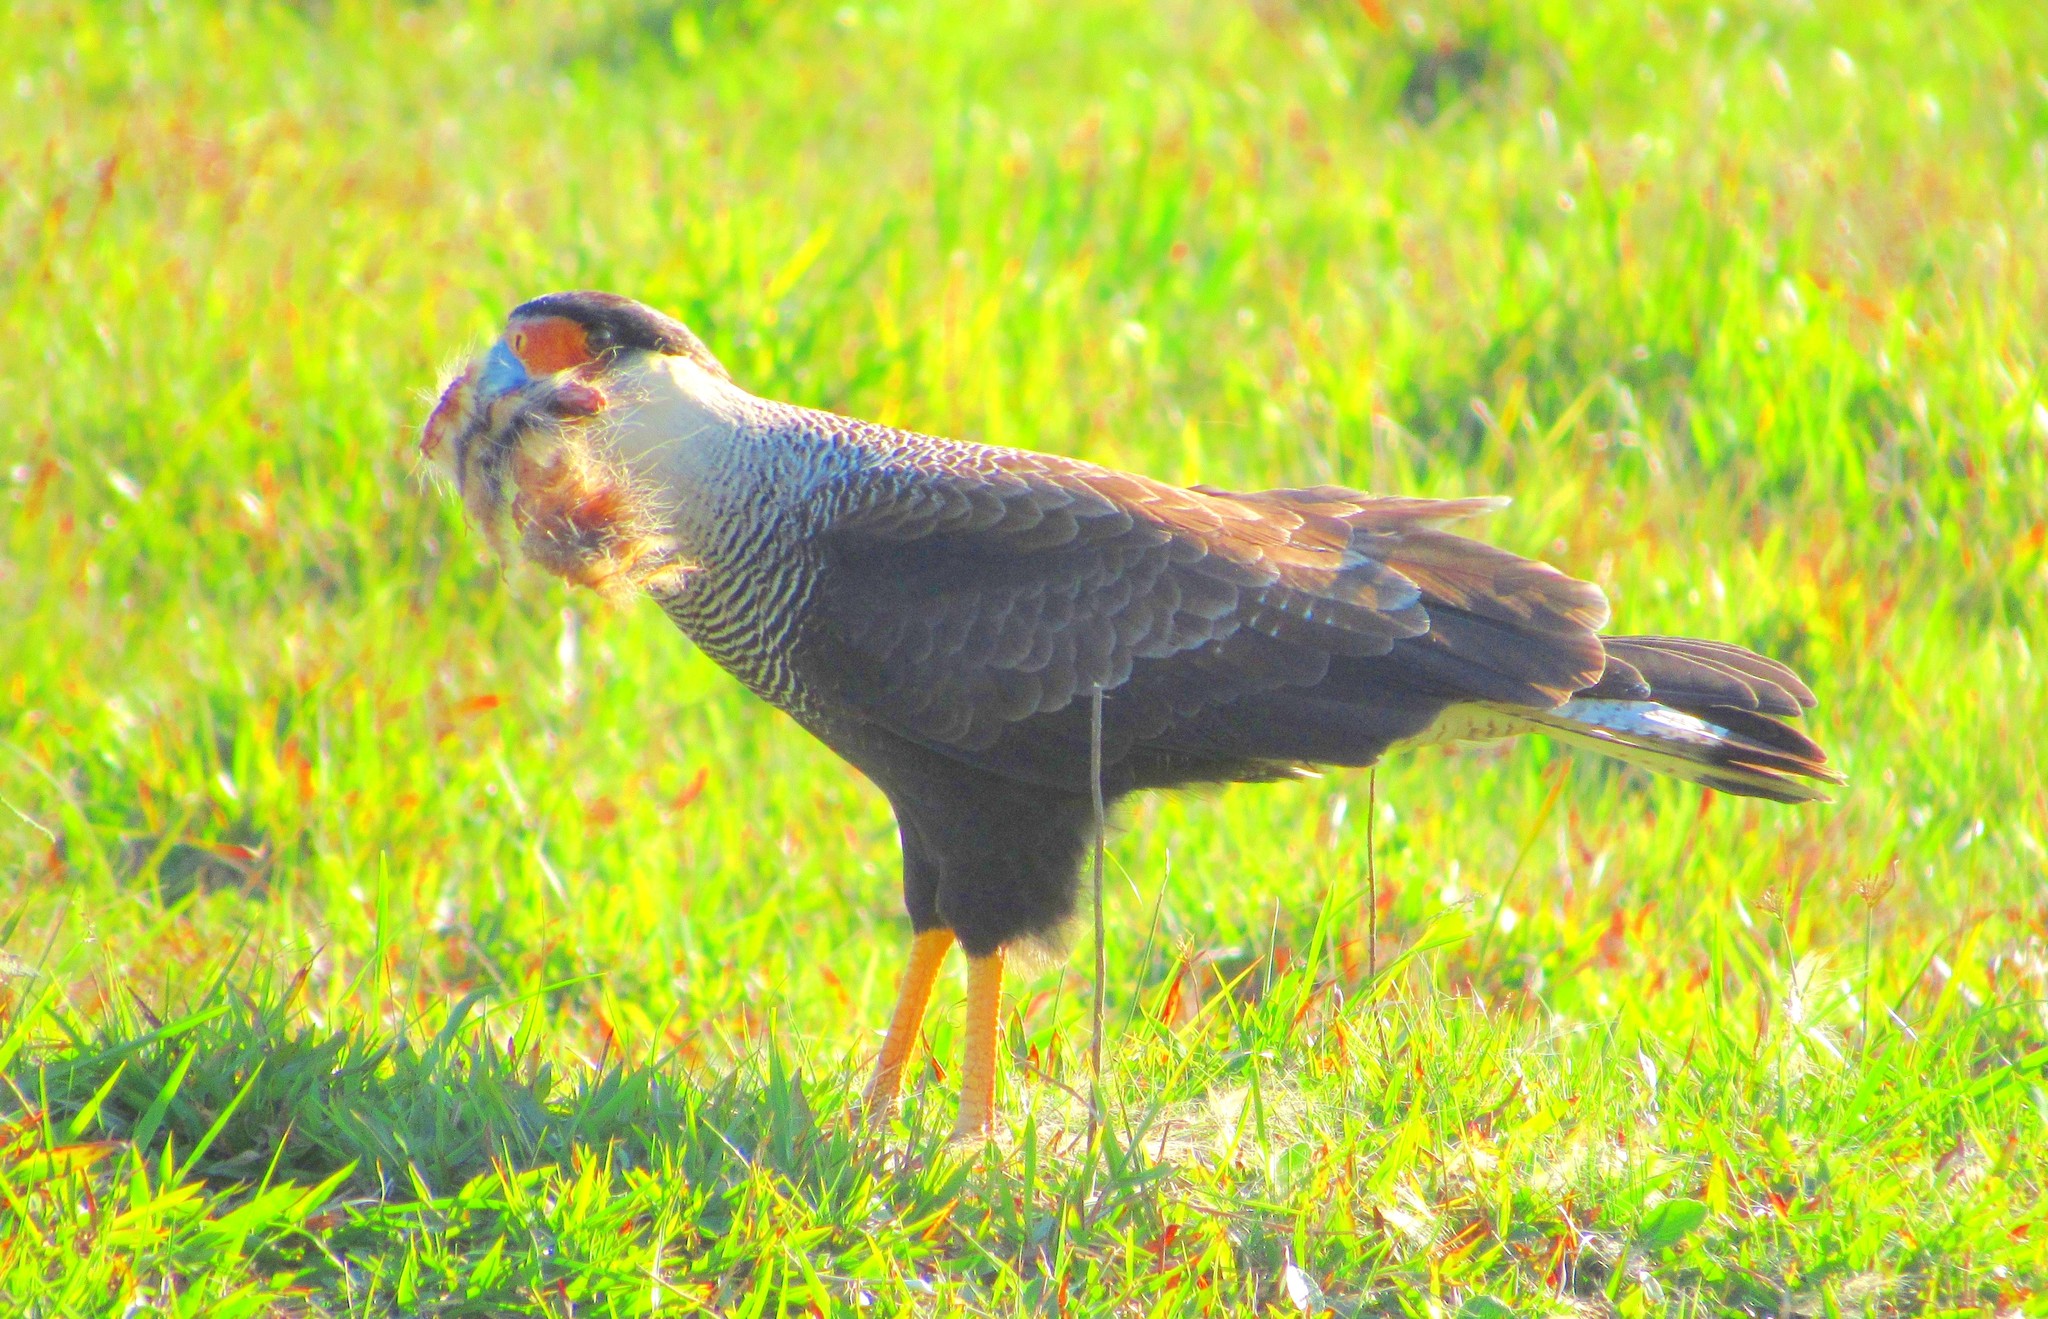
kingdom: Animalia
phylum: Chordata
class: Aves
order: Falconiformes
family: Falconidae
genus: Caracara
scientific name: Caracara plancus
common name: Southern caracara
